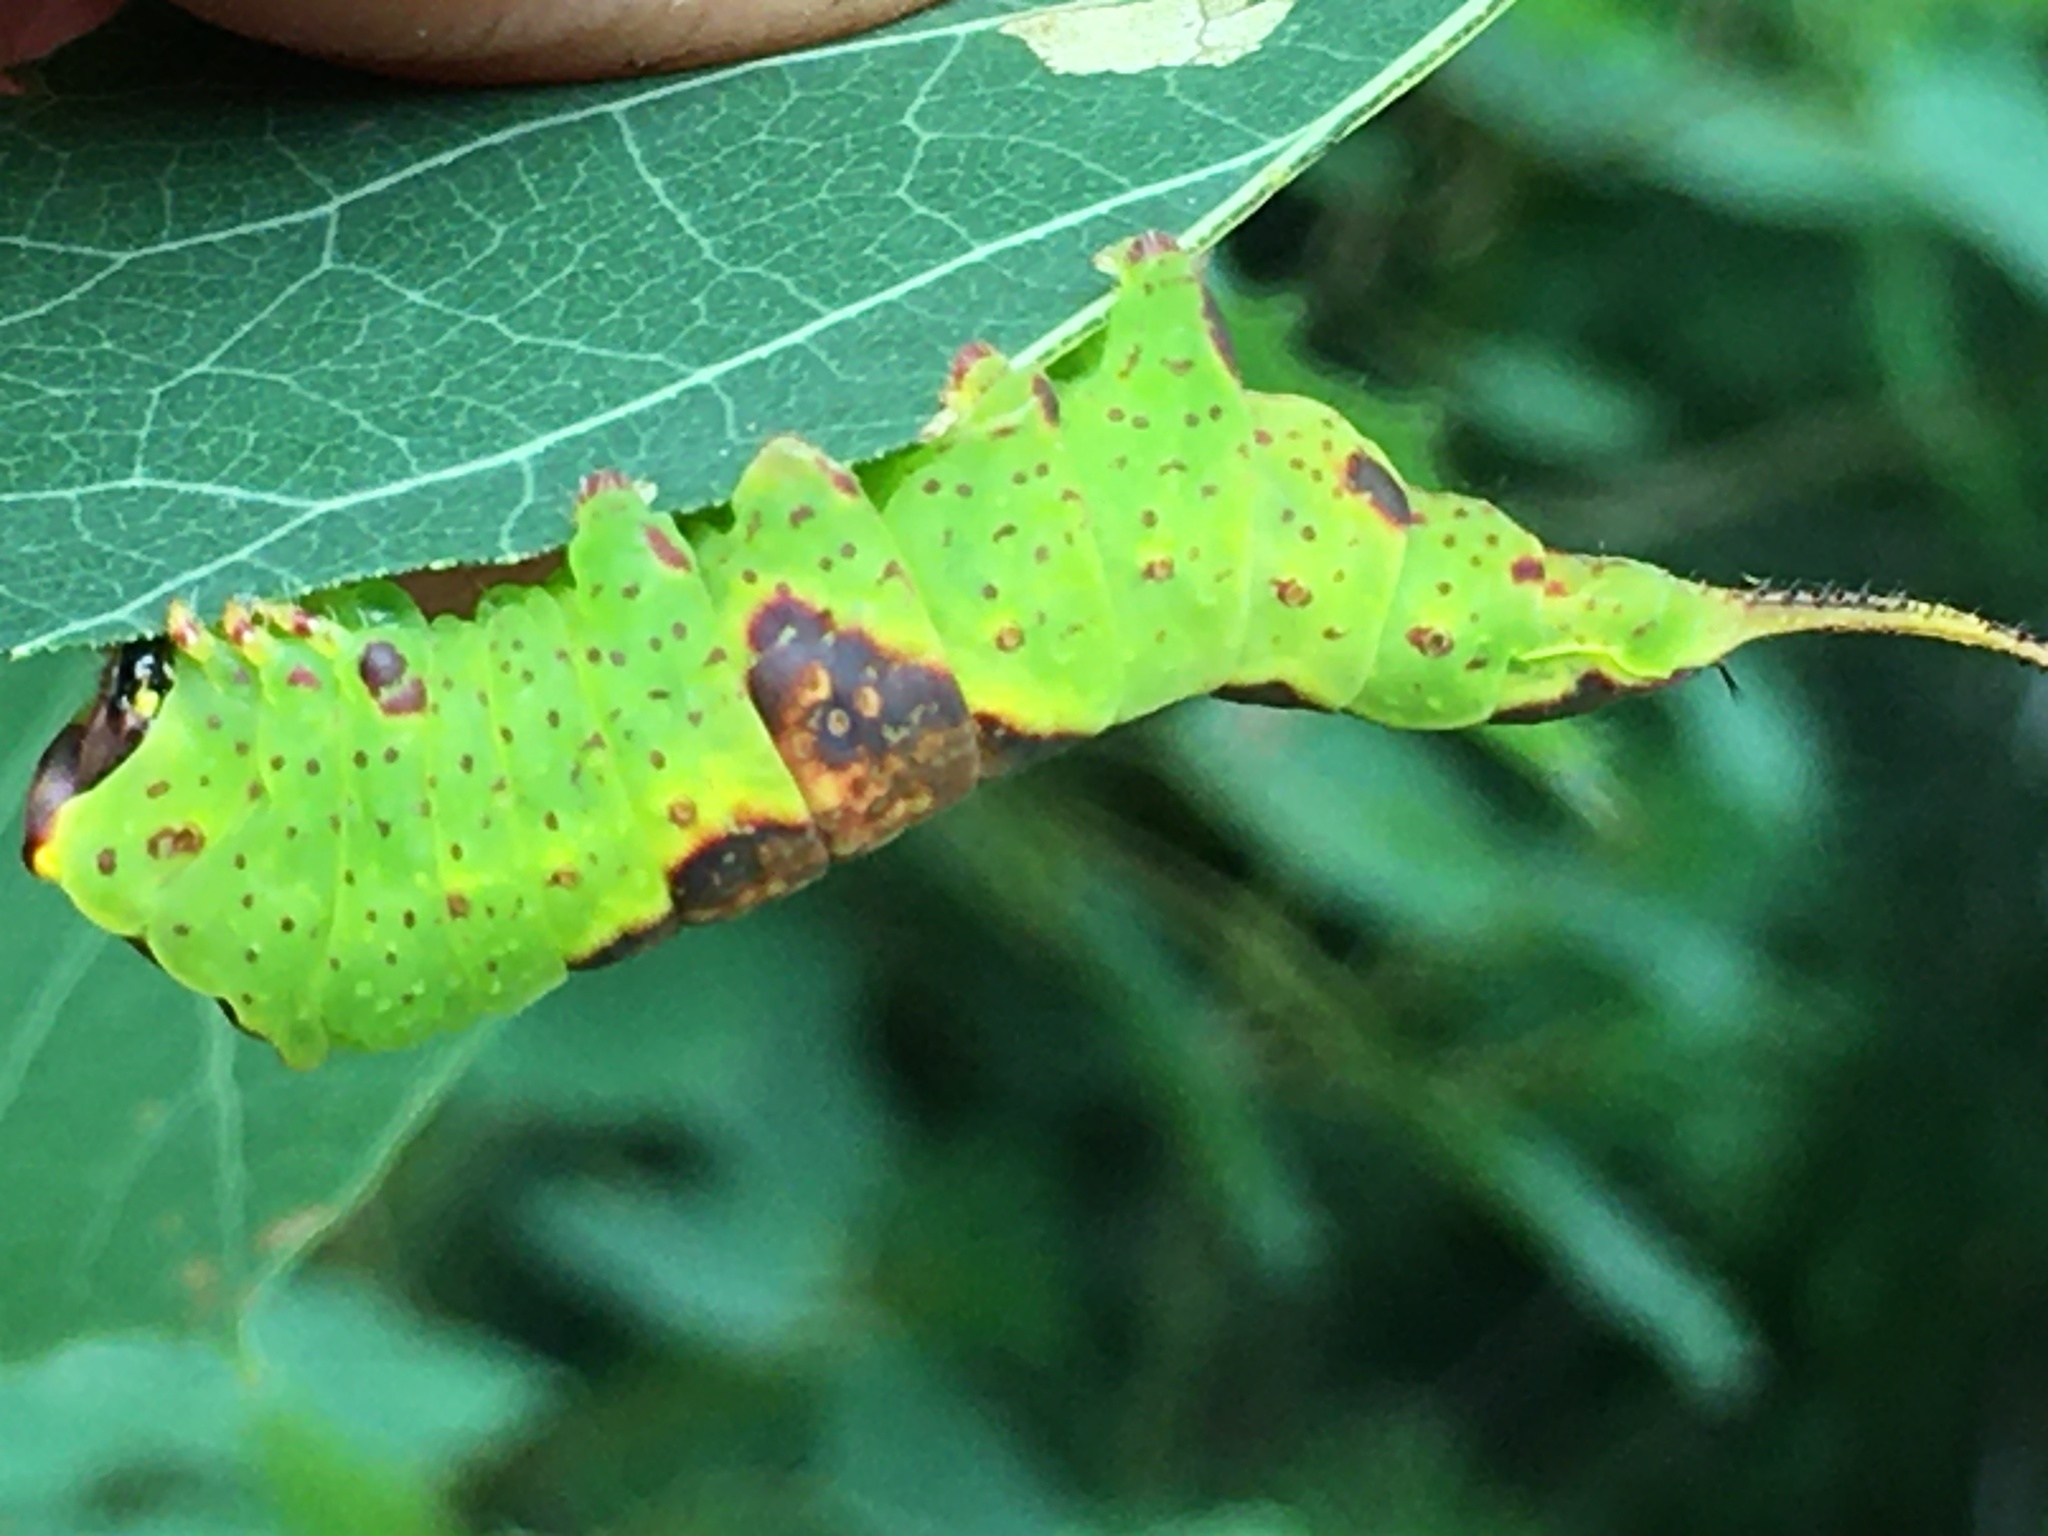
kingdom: Animalia
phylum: Arthropoda
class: Insecta
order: Lepidoptera
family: Notodontidae
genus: Furcula
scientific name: Furcula cinerea
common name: Gray furcula
